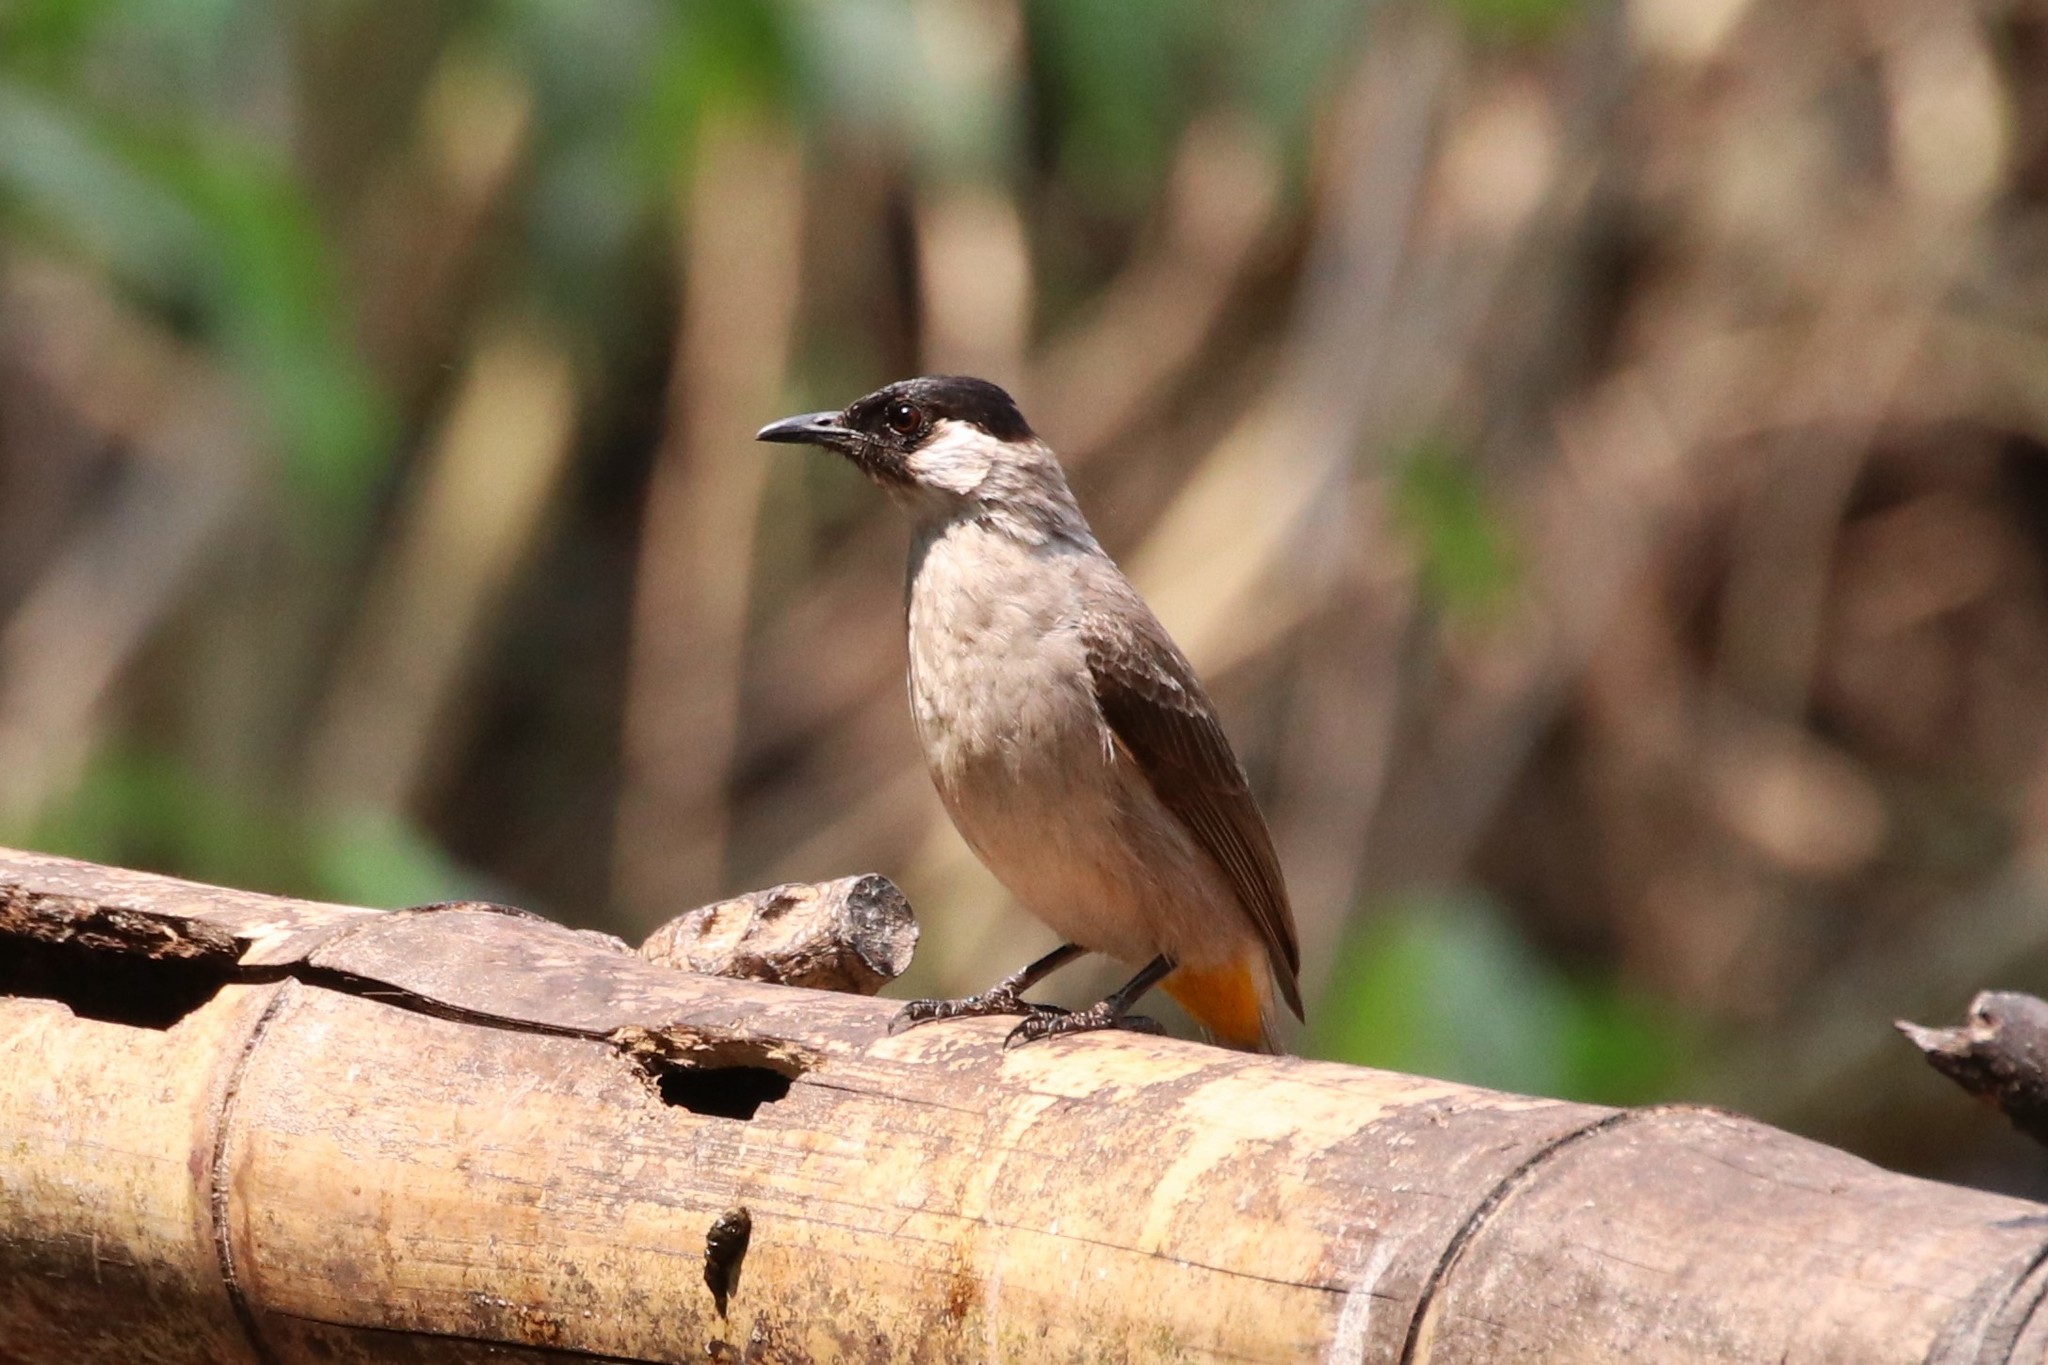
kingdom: Animalia
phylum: Chordata
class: Aves
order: Passeriformes
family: Pycnonotidae
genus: Pycnonotus
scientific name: Pycnonotus aurigaster
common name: Sooty-headed bulbul
